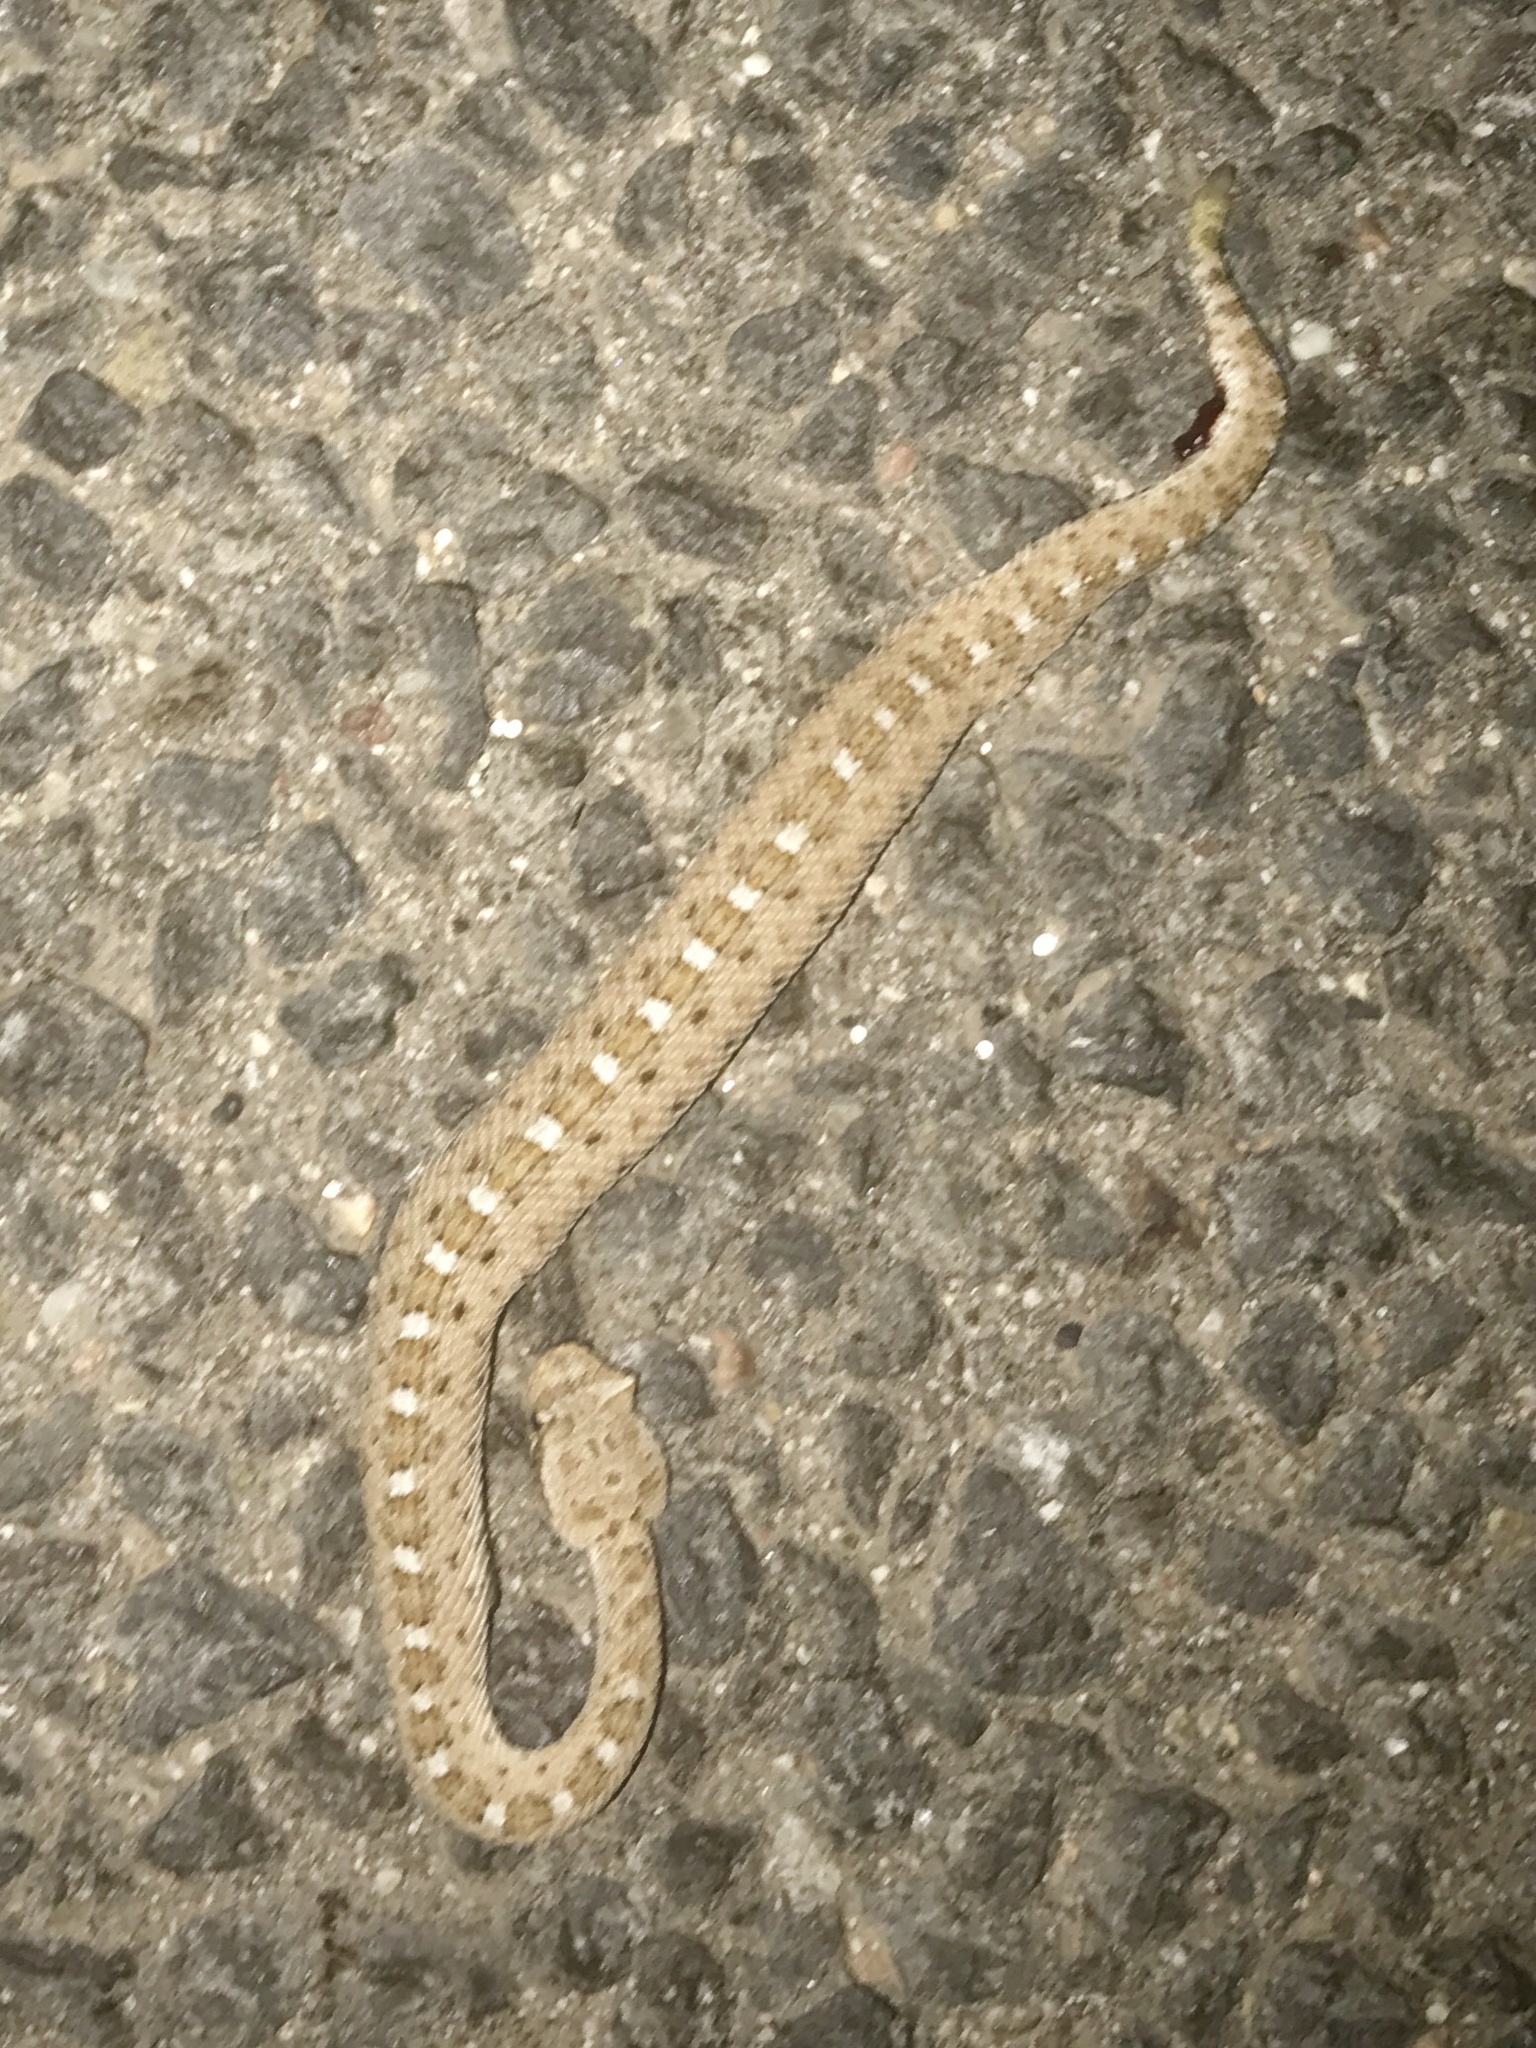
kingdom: Animalia
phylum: Chordata
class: Squamata
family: Viperidae
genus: Crotalus
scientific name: Crotalus cerastes
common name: Sidewinder
